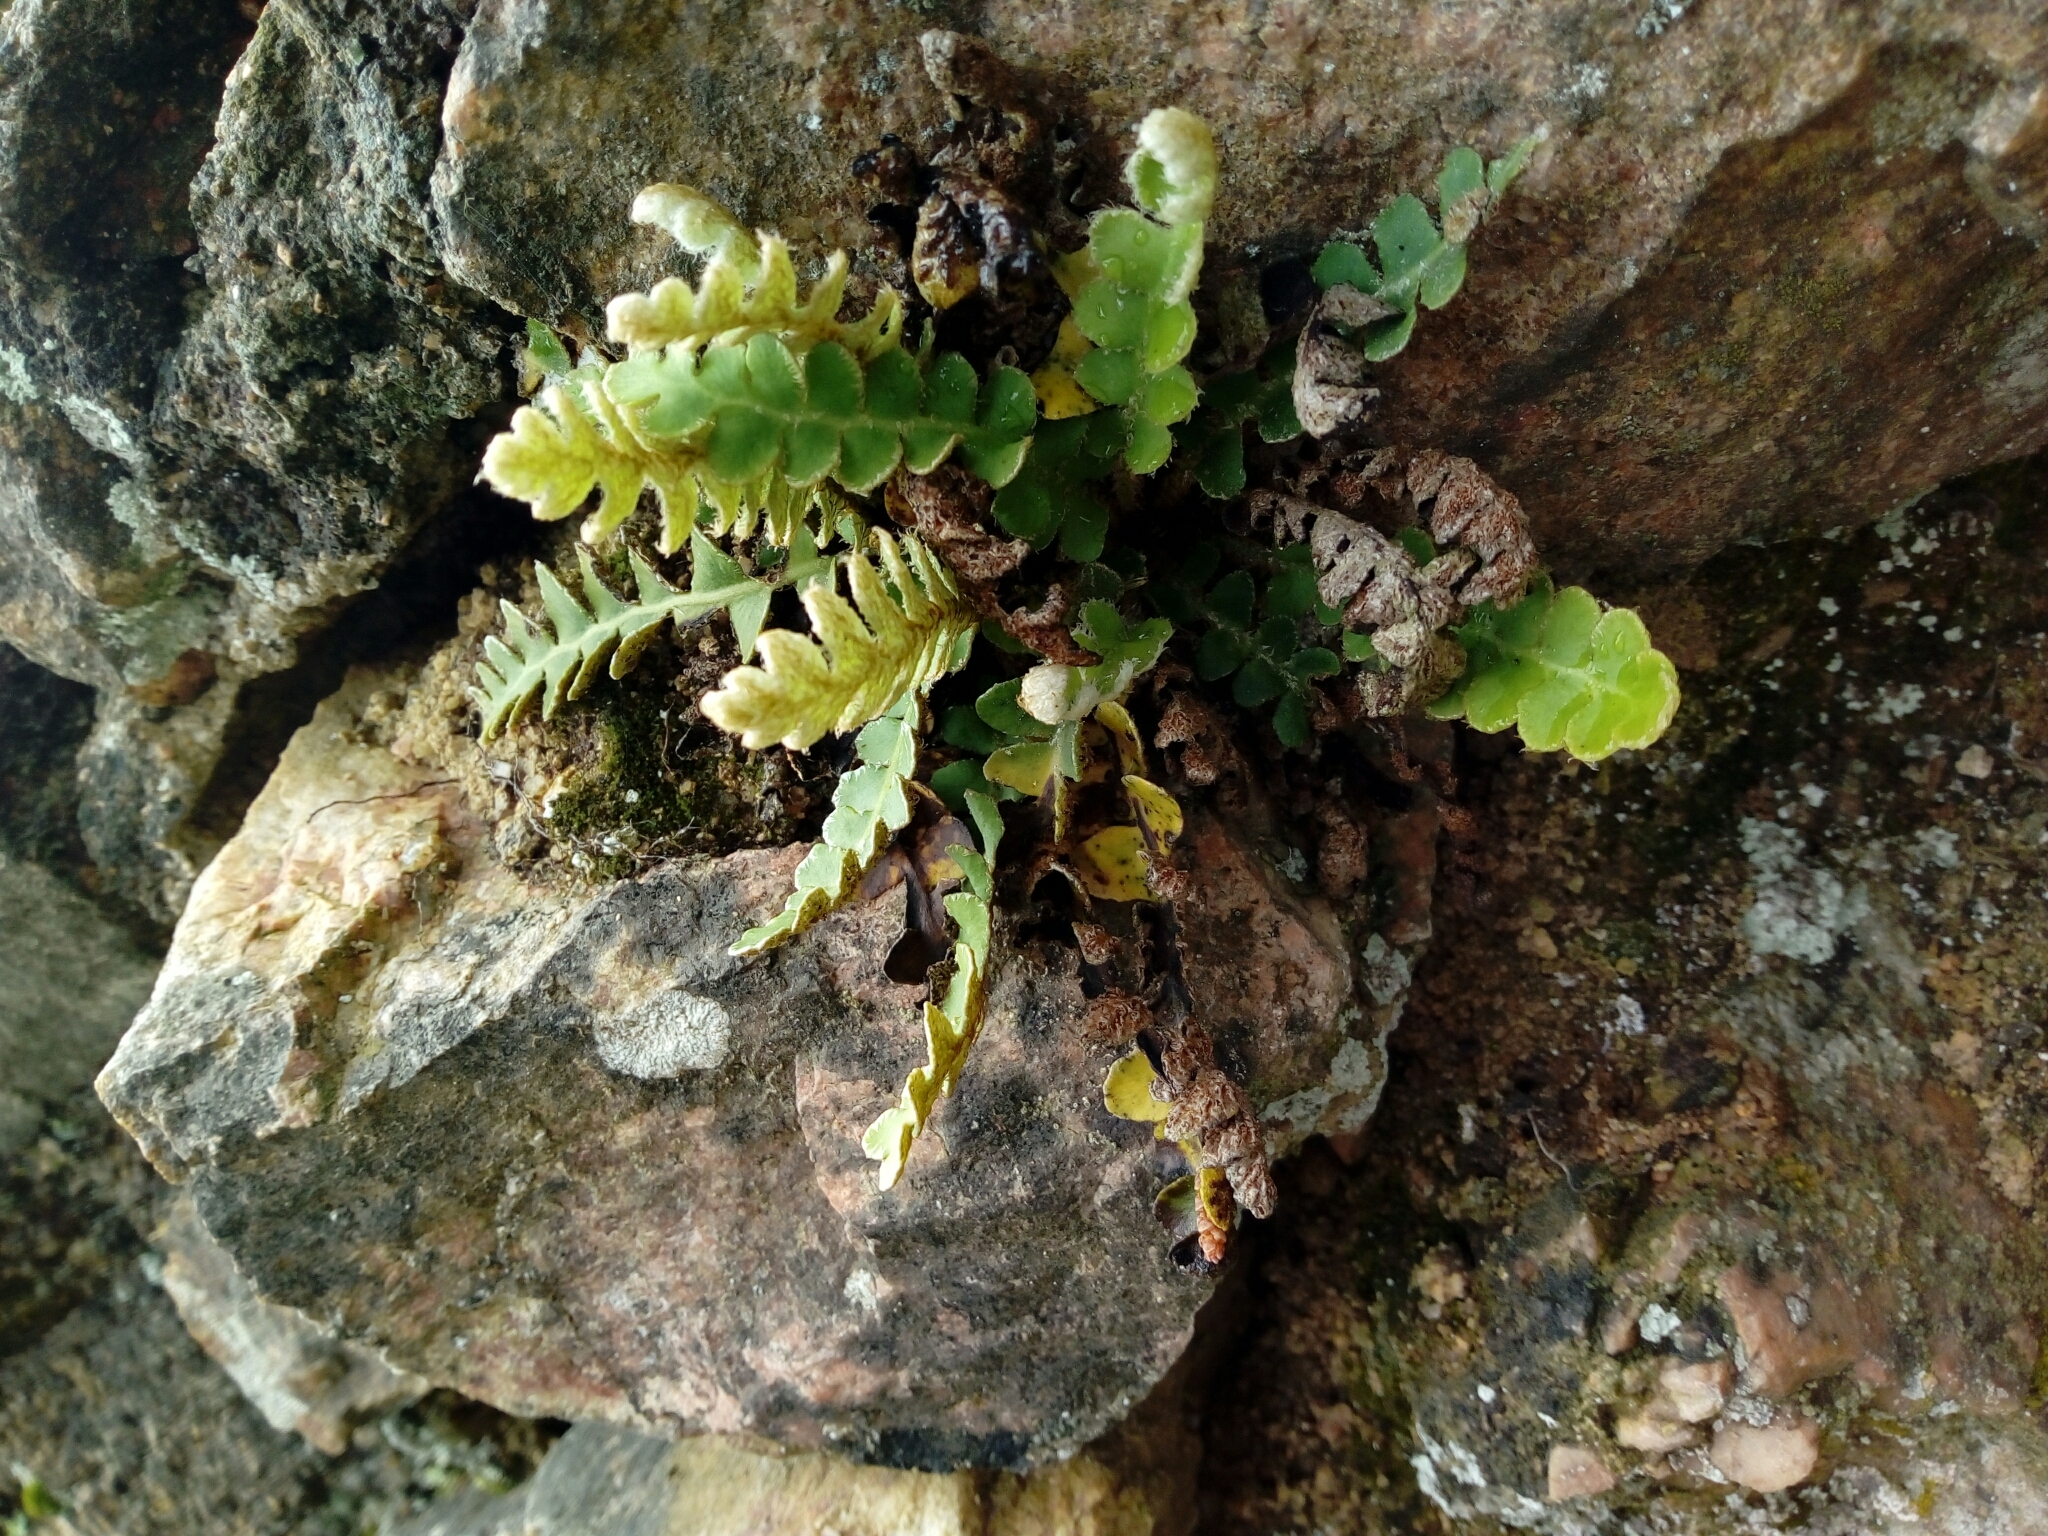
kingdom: Plantae
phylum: Tracheophyta
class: Polypodiopsida
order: Polypodiales
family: Aspleniaceae
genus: Asplenium
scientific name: Asplenium ceterach
